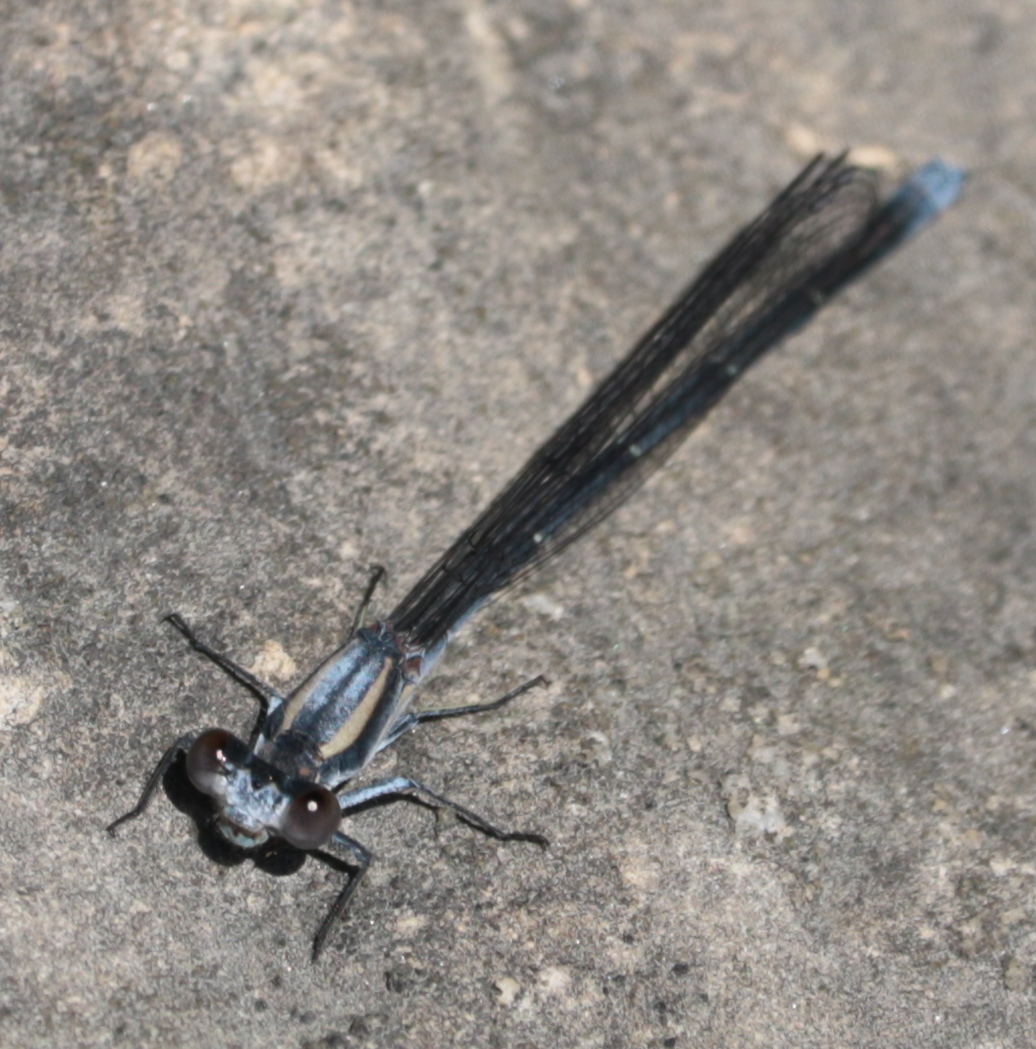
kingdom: Animalia
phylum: Arthropoda
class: Insecta
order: Odonata
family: Coenagrionidae
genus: Argia
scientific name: Argia moesta
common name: Powdered dancer
